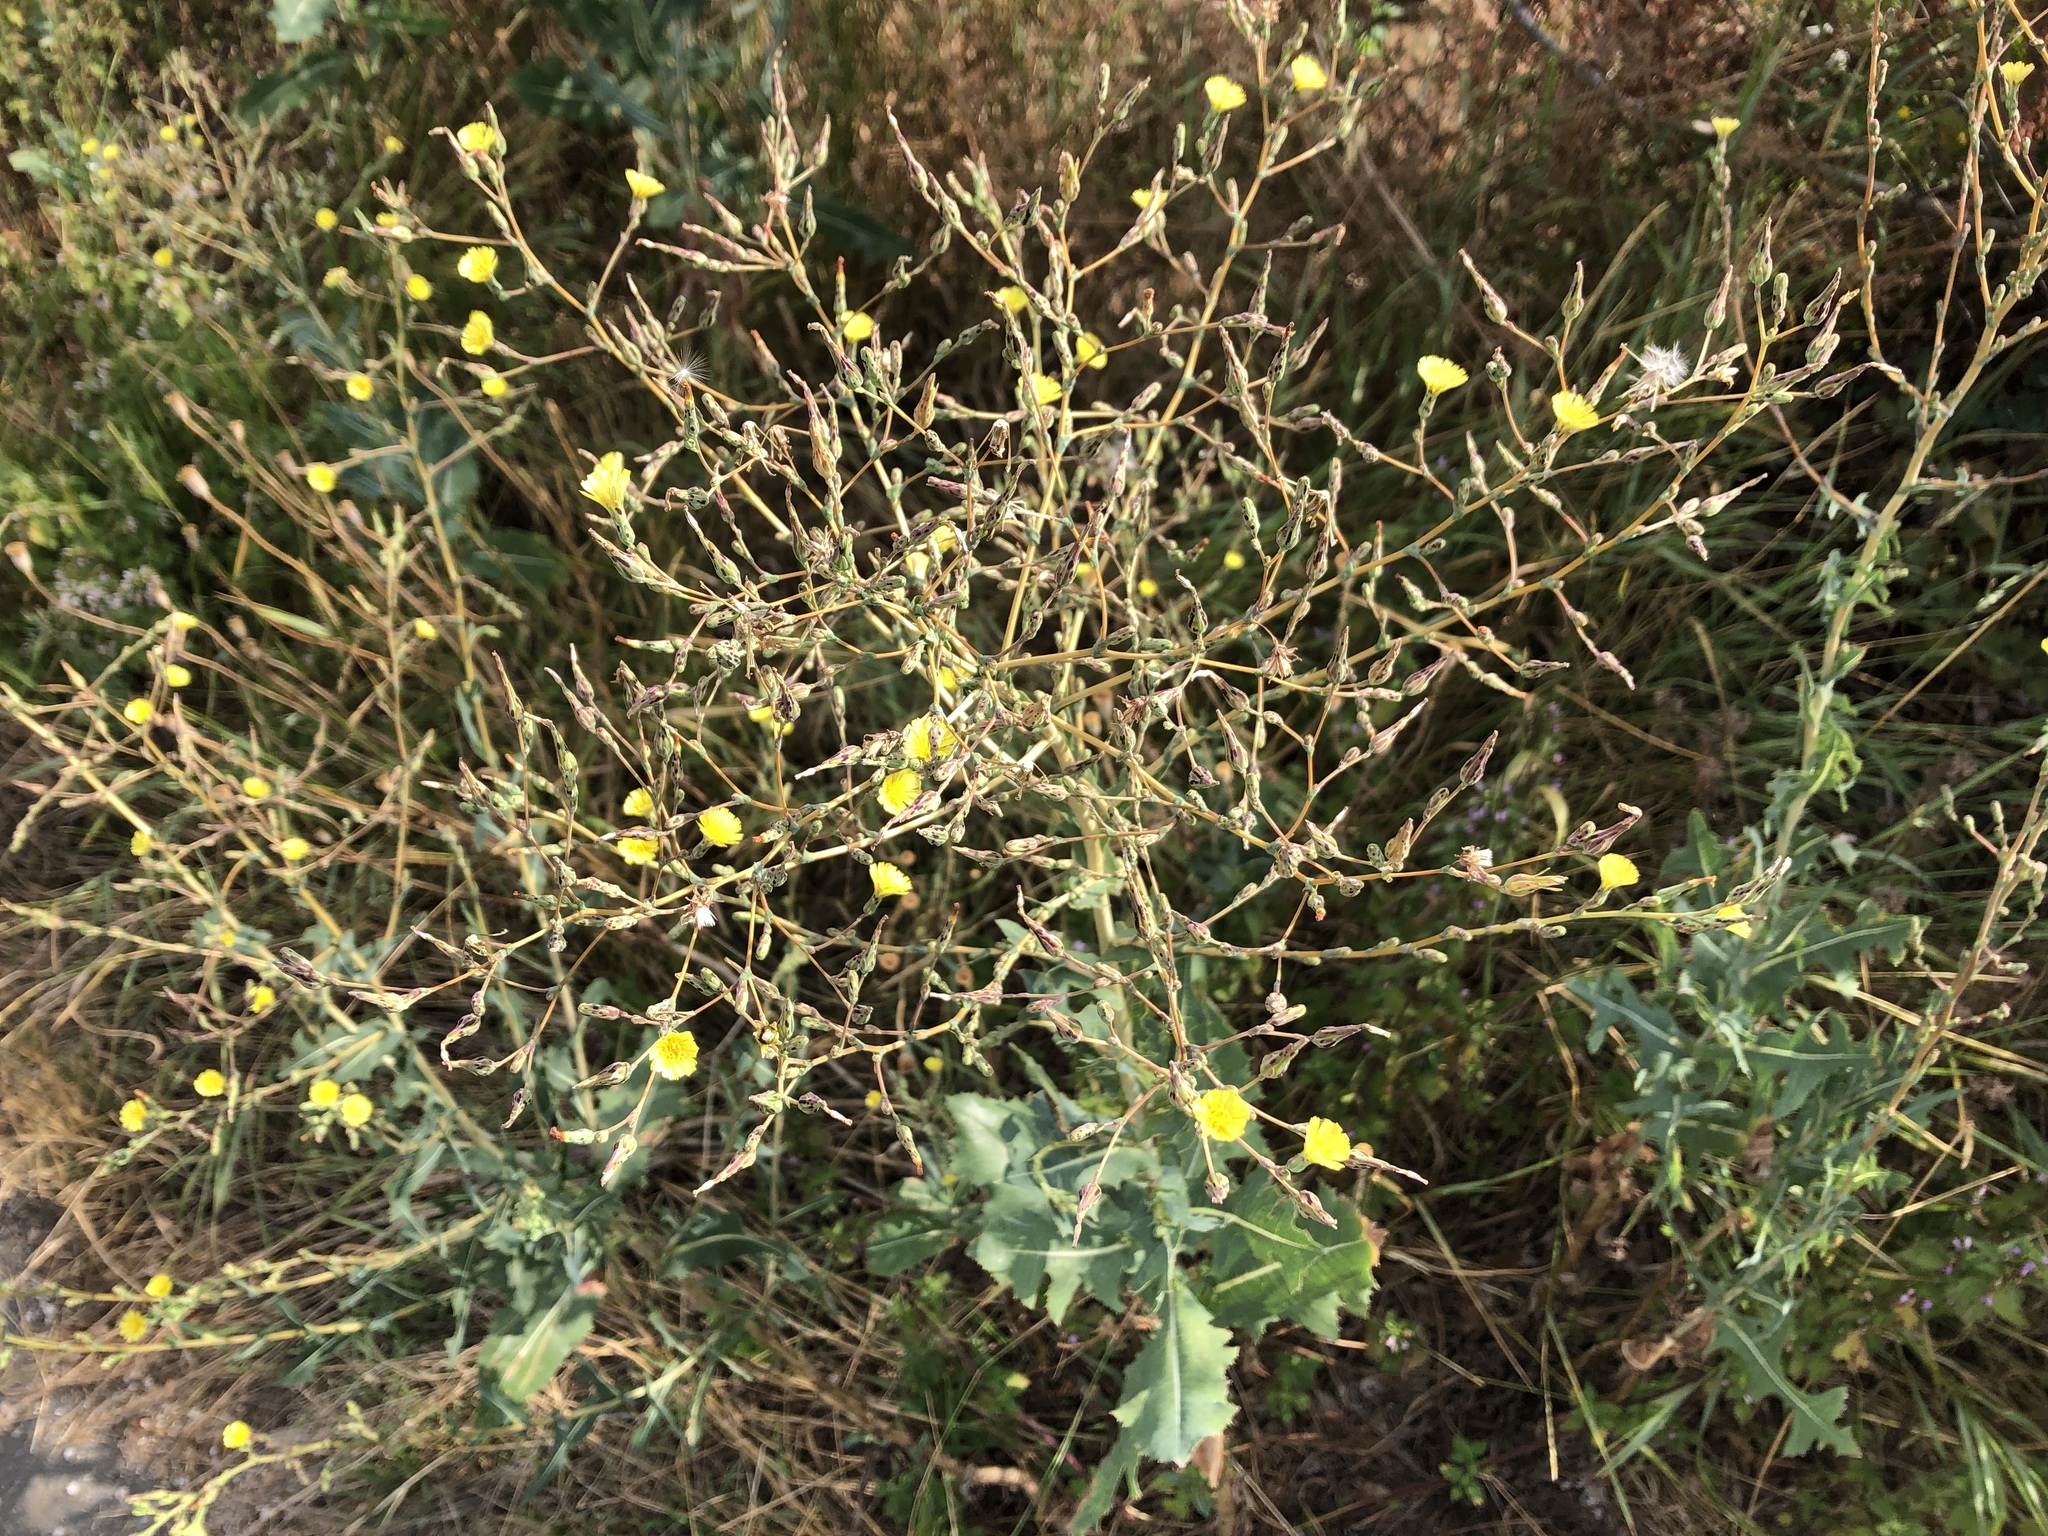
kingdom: Plantae
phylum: Tracheophyta
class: Magnoliopsida
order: Asterales
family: Asteraceae
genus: Lactuca
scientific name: Lactuca serriola
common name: Prickly lettuce
